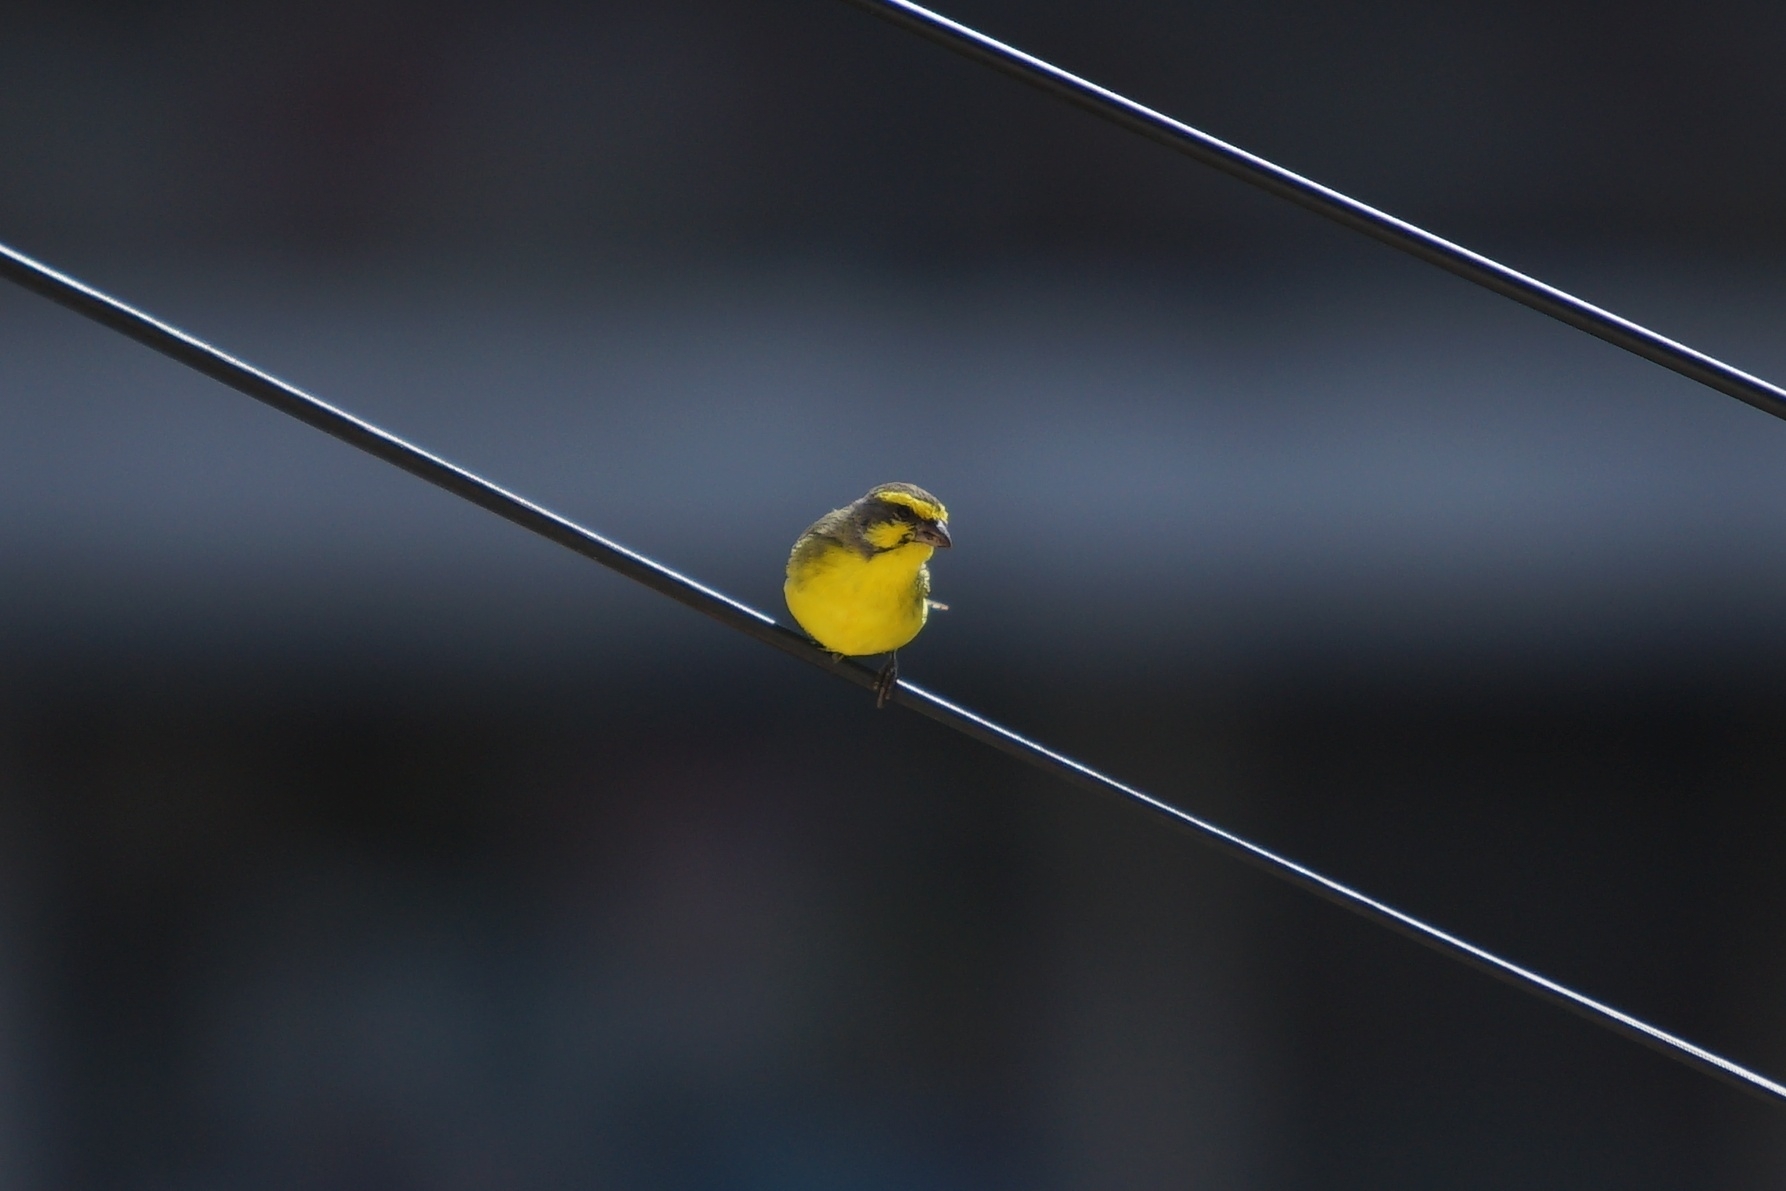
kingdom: Animalia
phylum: Chordata
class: Aves
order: Passeriformes
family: Fringillidae
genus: Crithagra
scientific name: Crithagra mozambica
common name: Yellow-fronted canary
